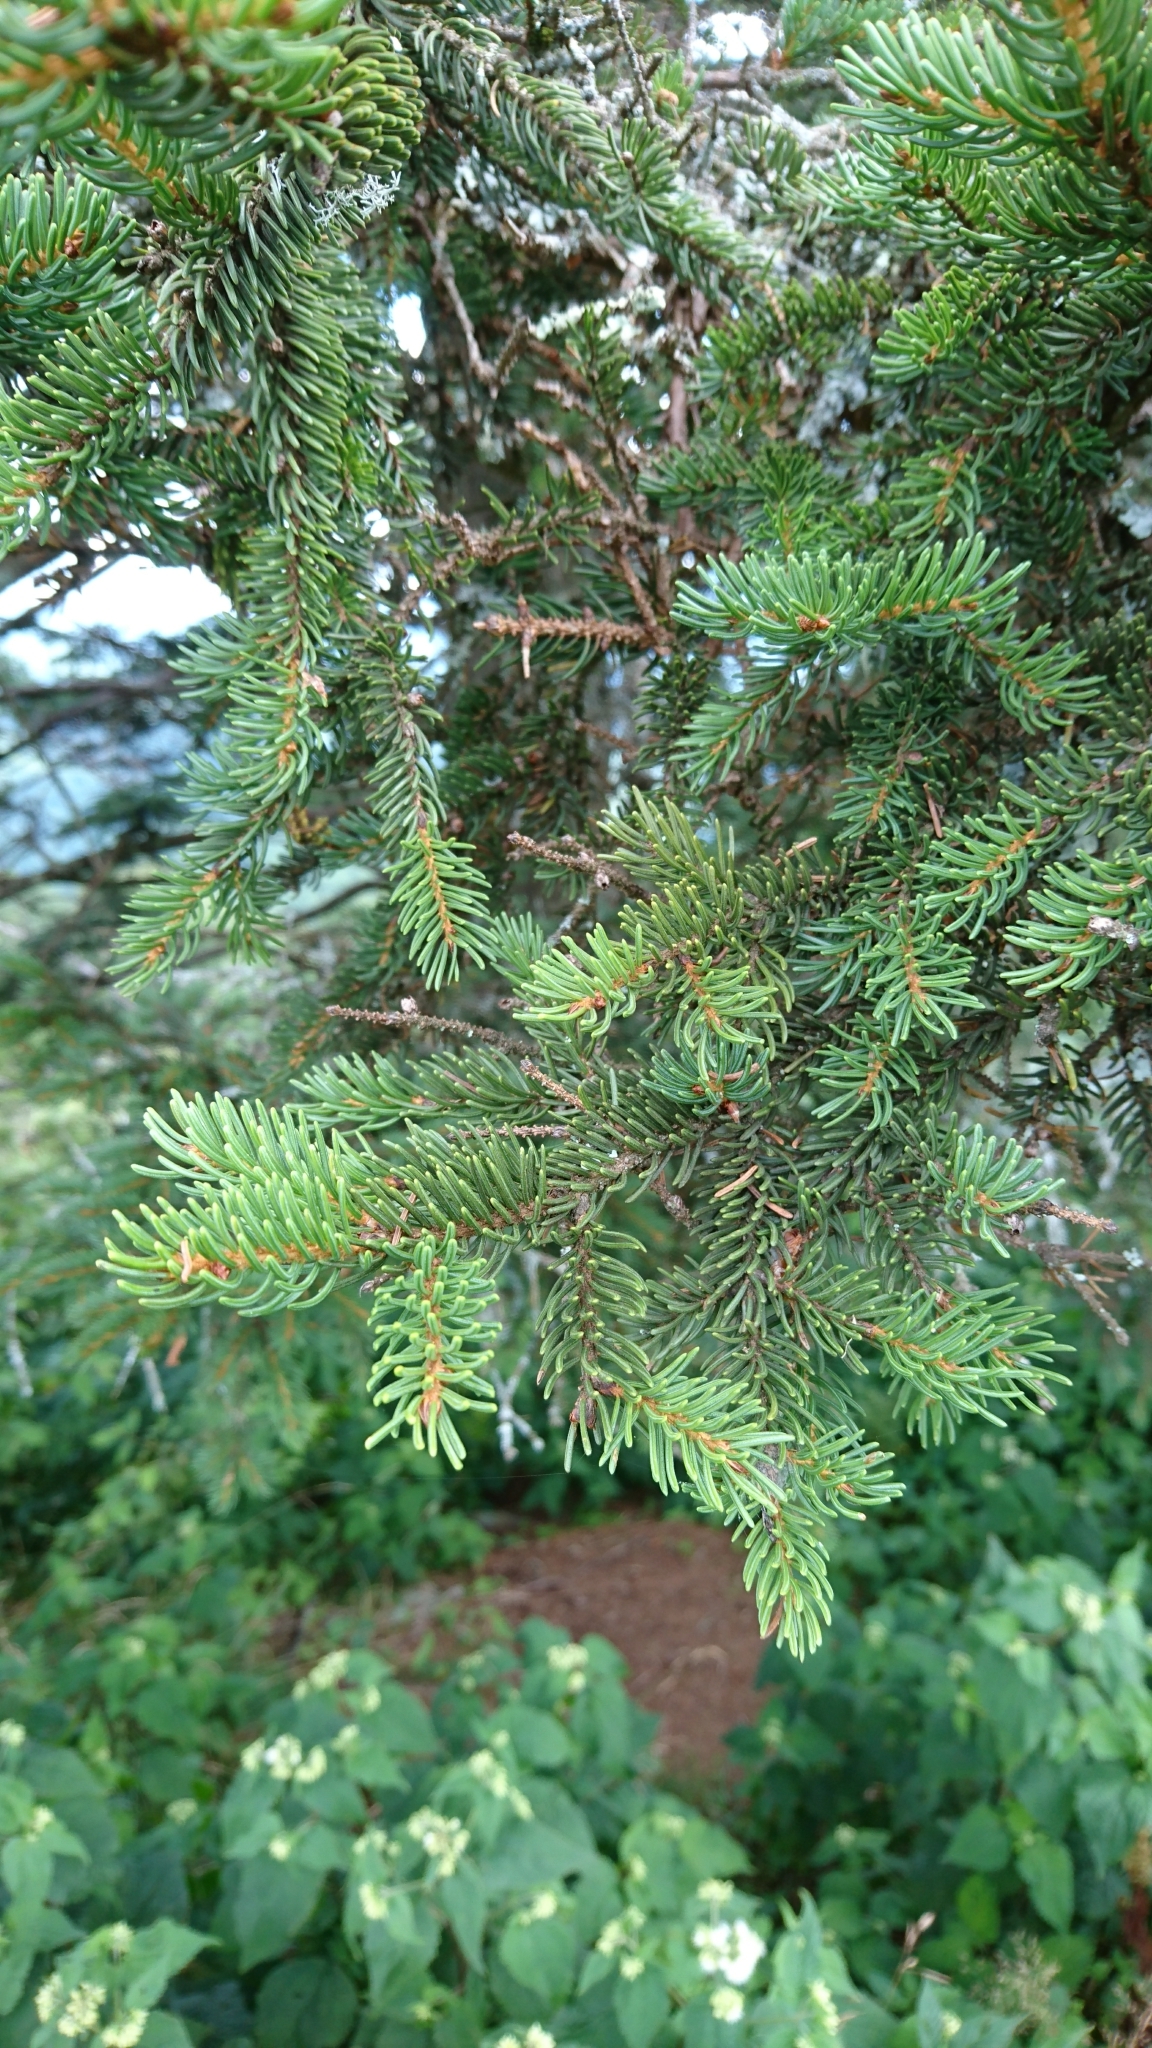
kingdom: Plantae
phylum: Tracheophyta
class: Pinopsida
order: Pinales
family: Pinaceae
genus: Picea
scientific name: Picea rubens
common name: Red spruce
